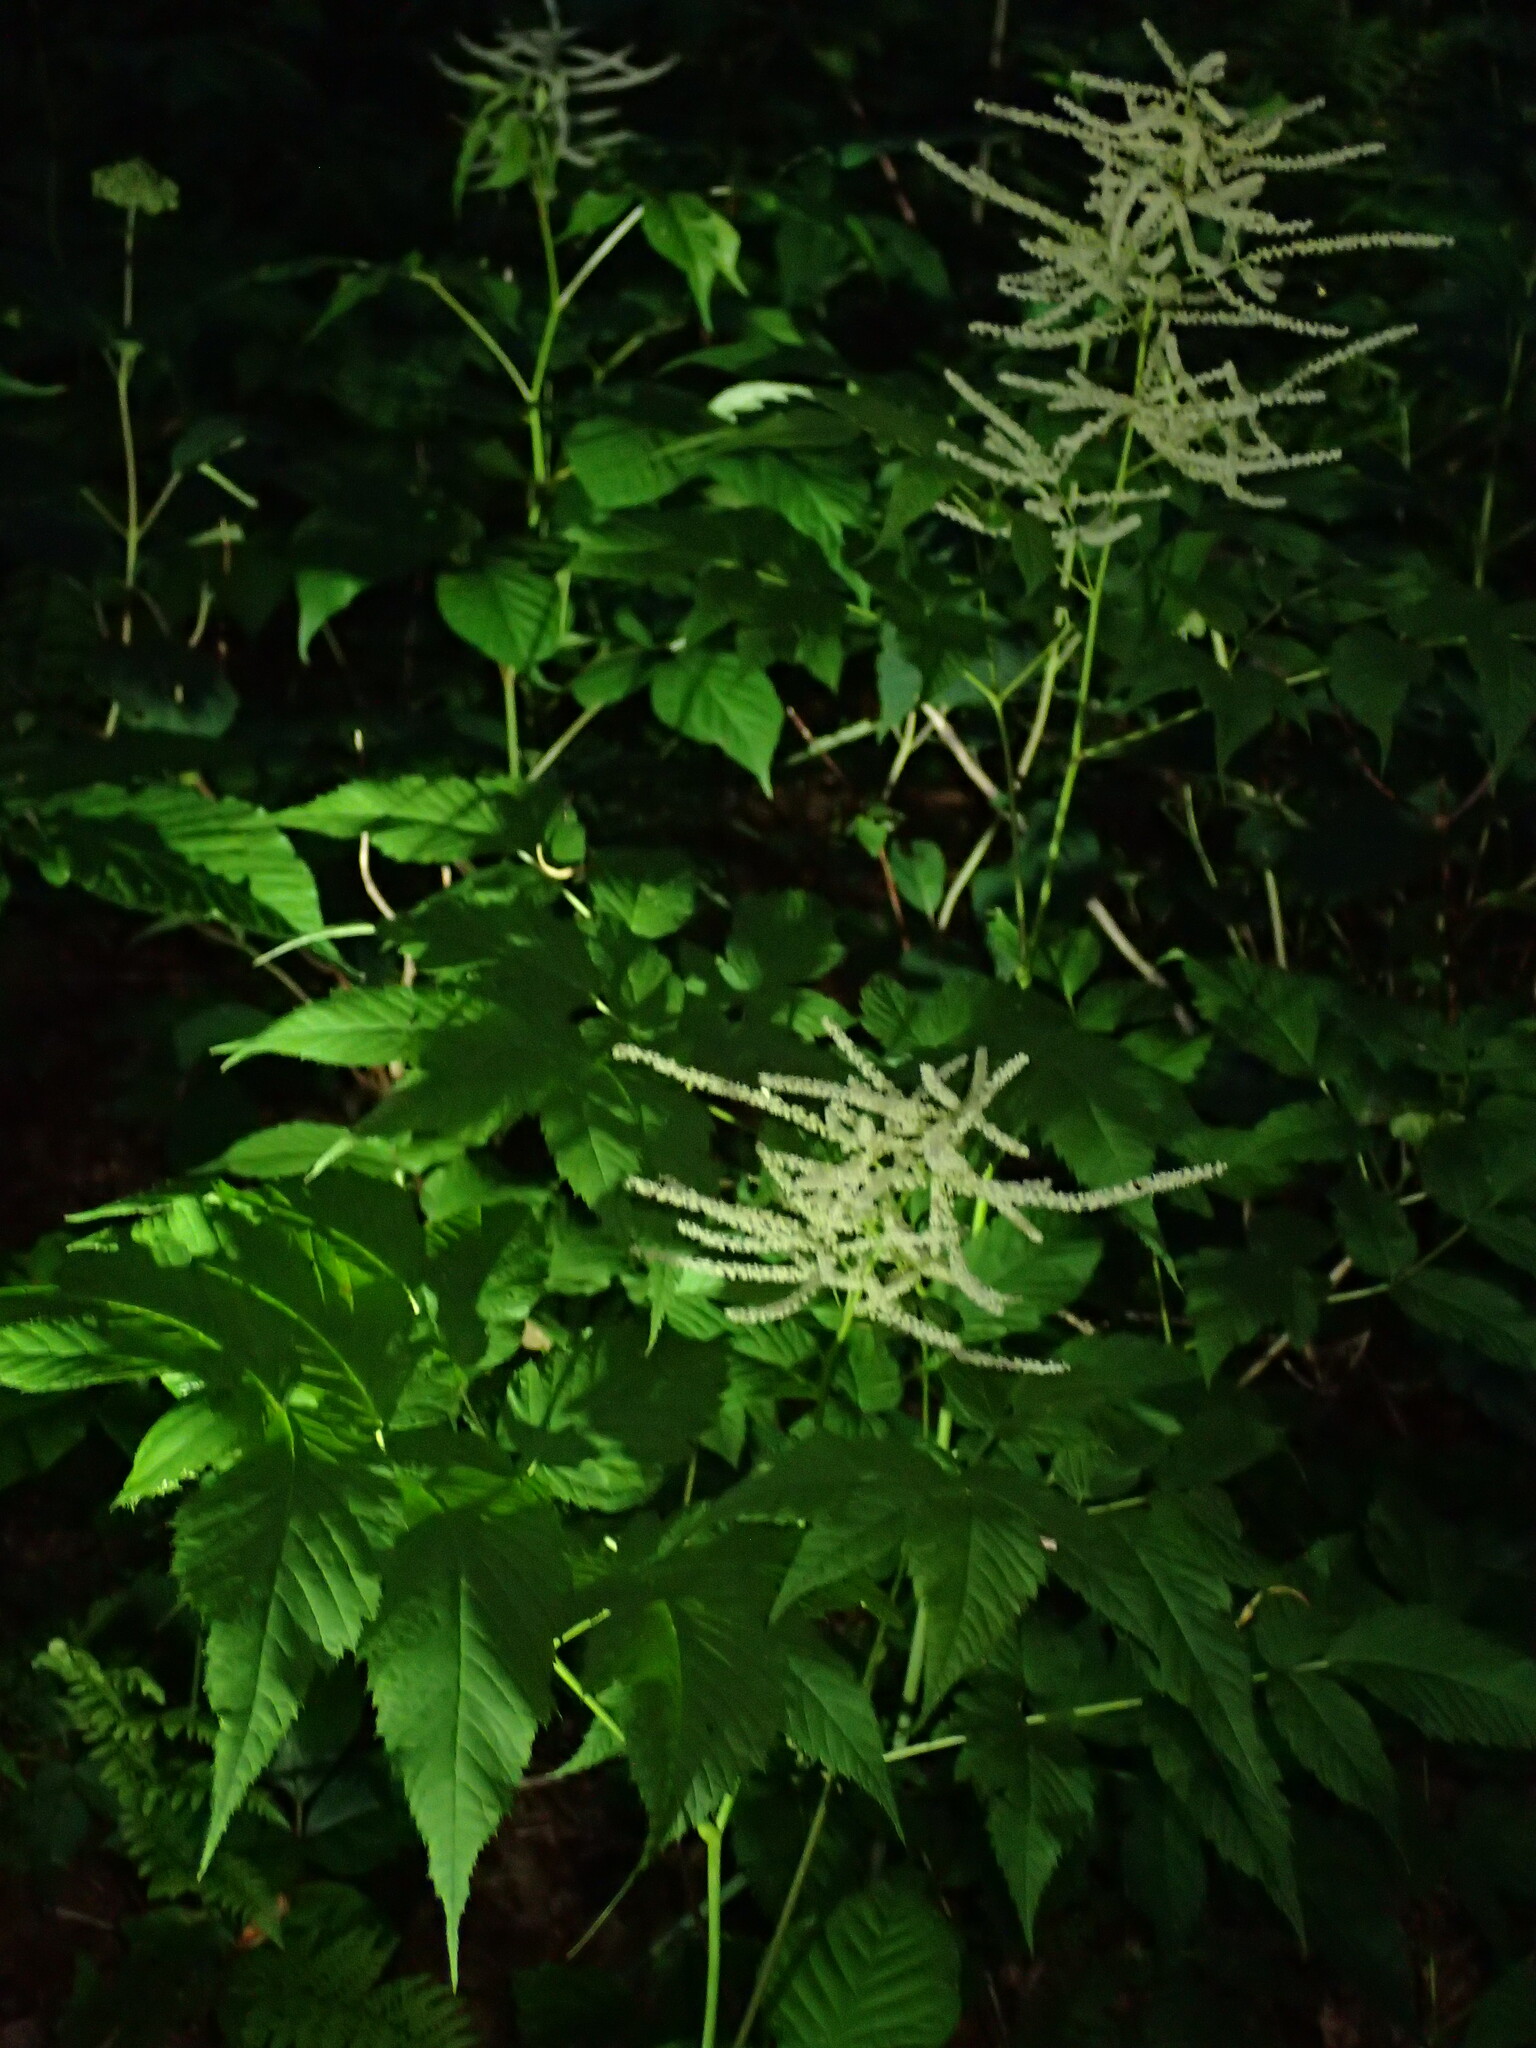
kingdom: Plantae
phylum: Tracheophyta
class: Magnoliopsida
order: Rosales
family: Rosaceae
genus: Aruncus
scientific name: Aruncus dioicus
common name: Buck's-beard
